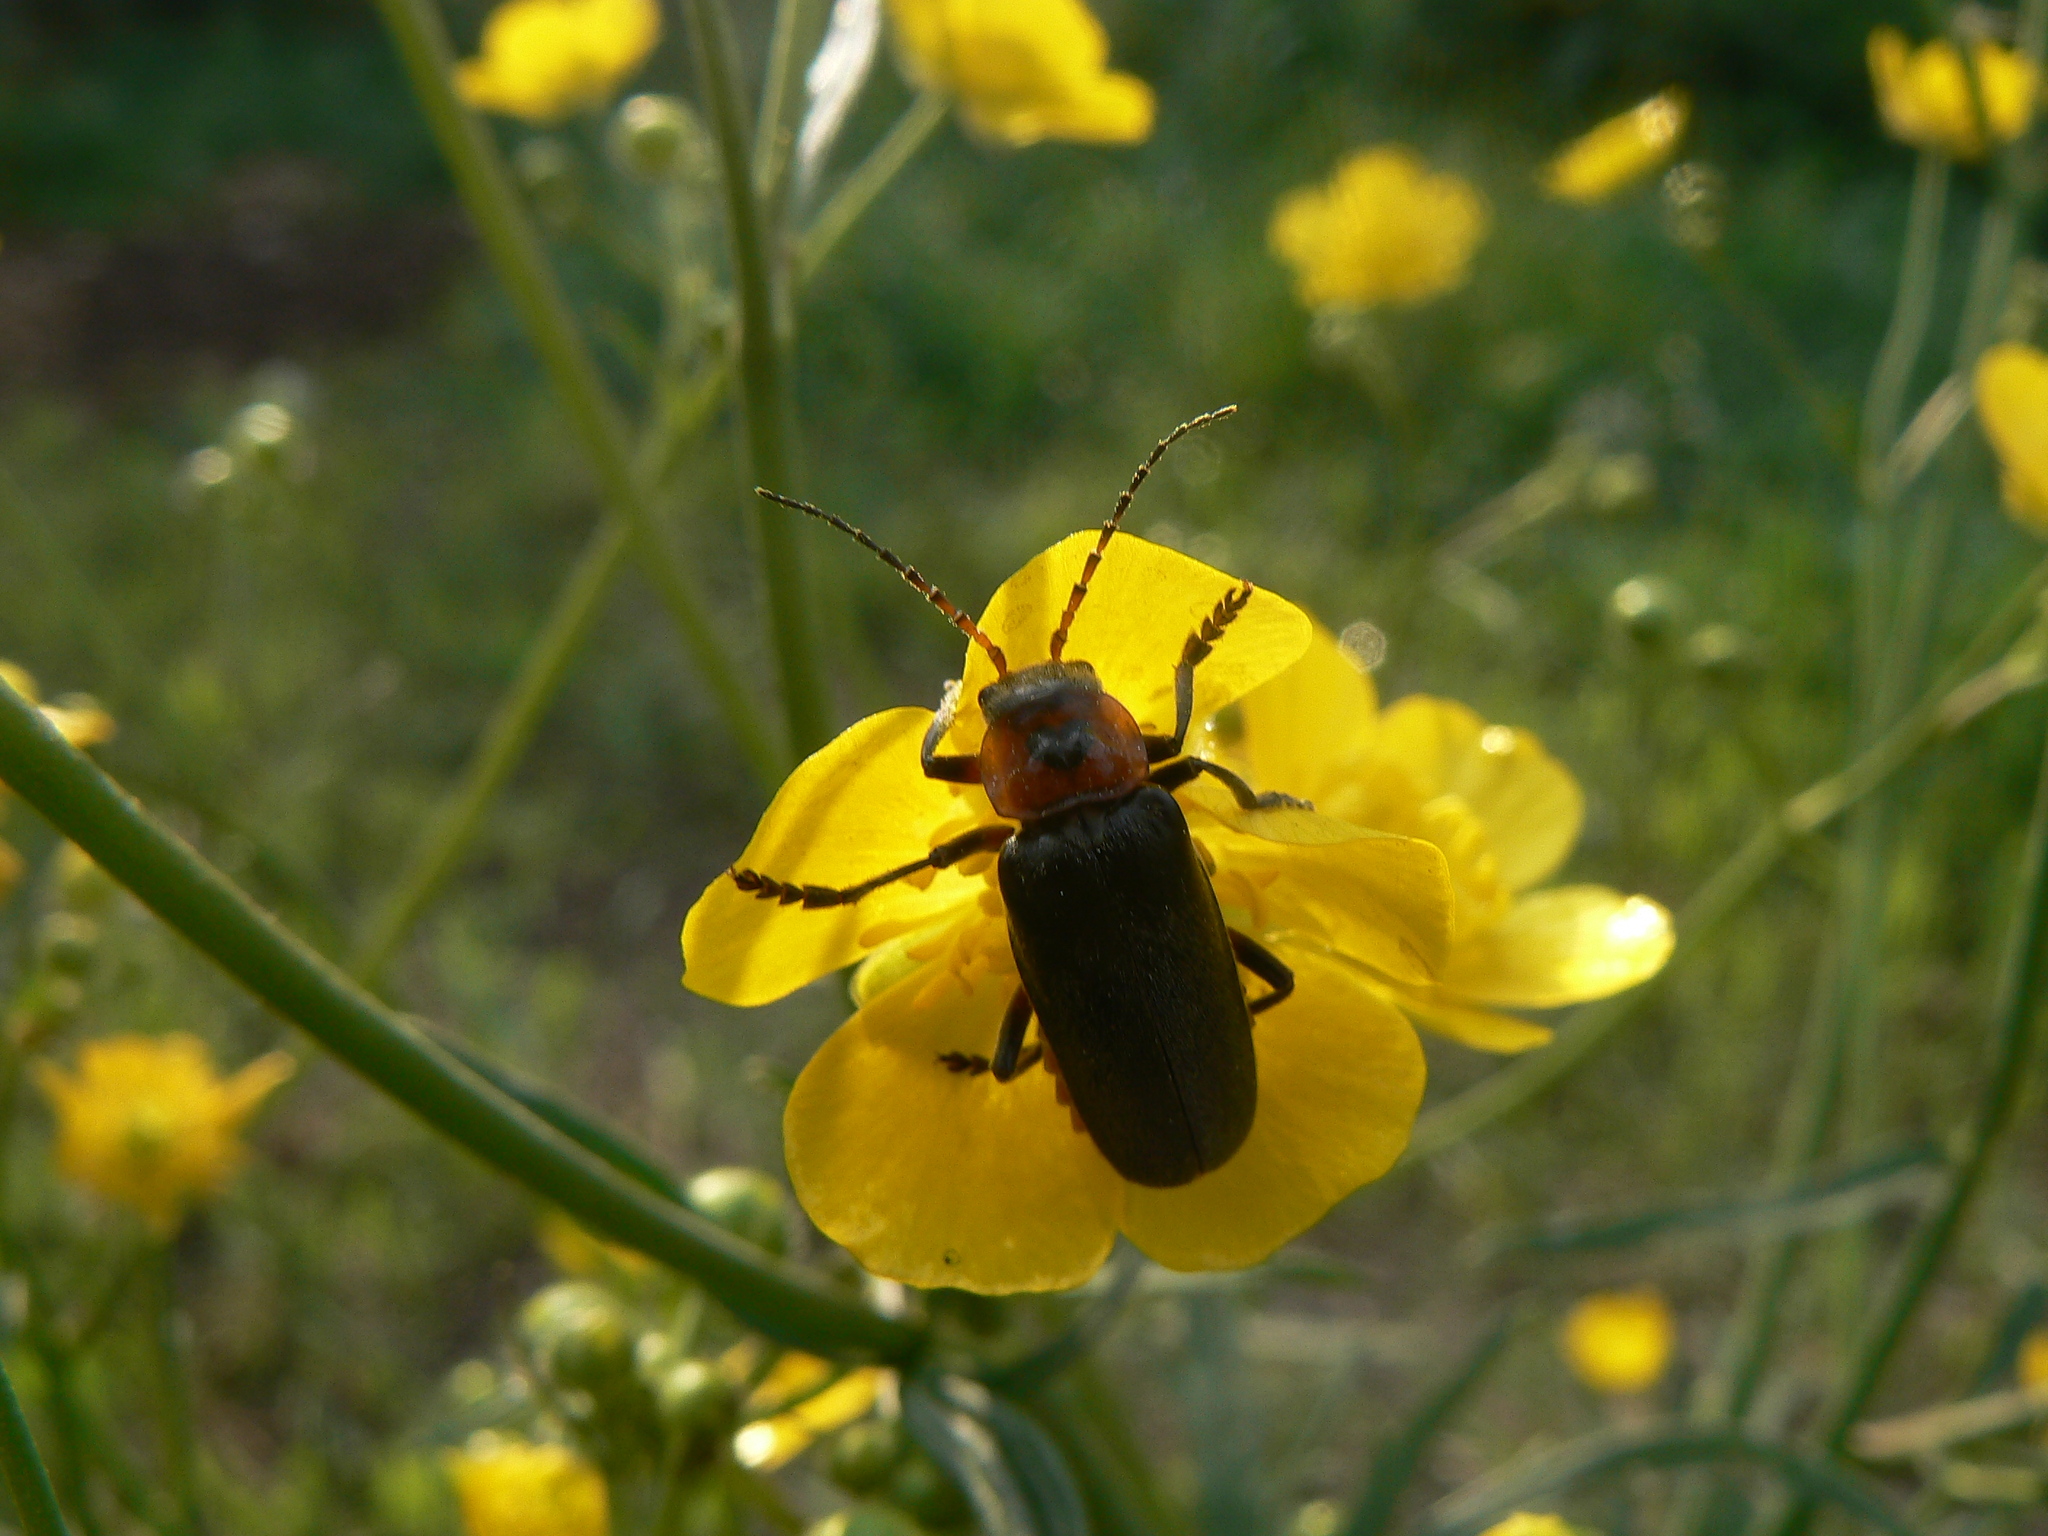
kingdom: Animalia
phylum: Arthropoda
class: Insecta
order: Coleoptera
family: Cantharidae
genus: Cantharis
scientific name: Cantharis rustica
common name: Soldier beetle
